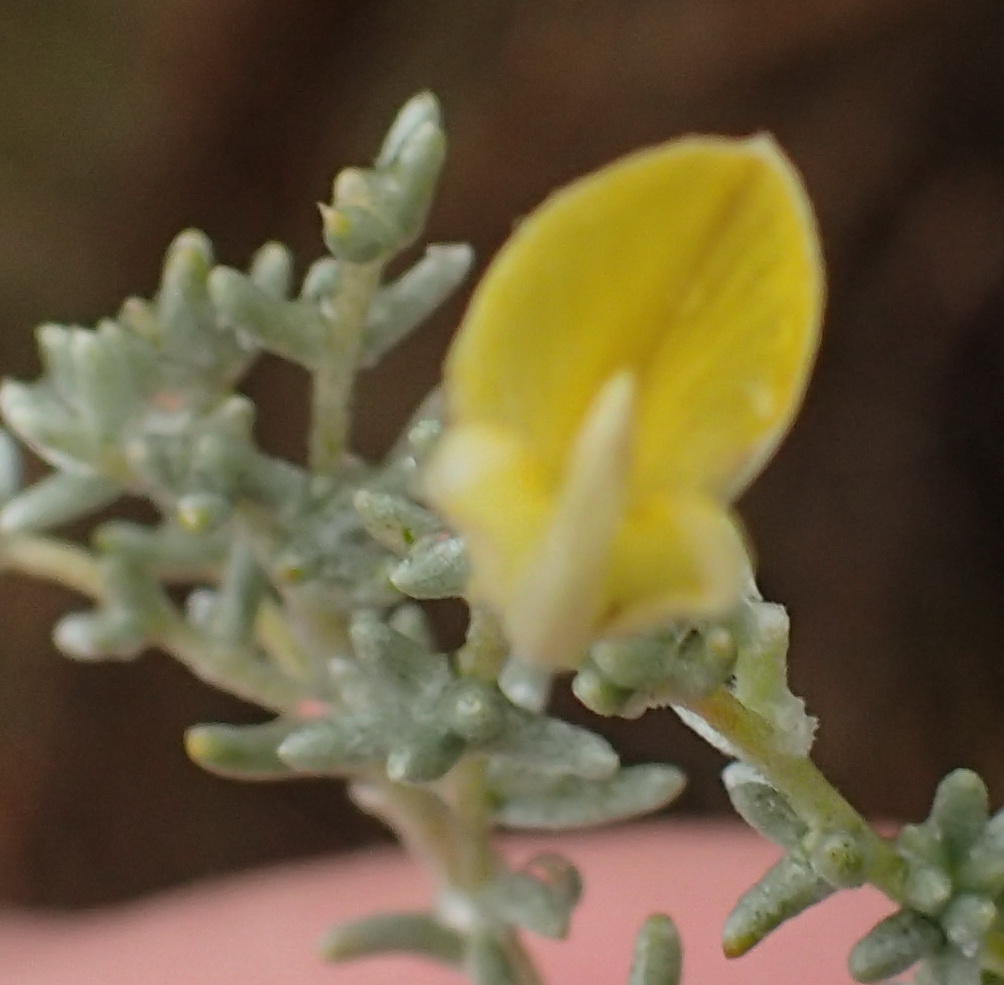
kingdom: Plantae
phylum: Tracheophyta
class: Magnoliopsida
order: Fabales
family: Fabaceae
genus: Aspalathus
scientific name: Aspalathus pedunculata
